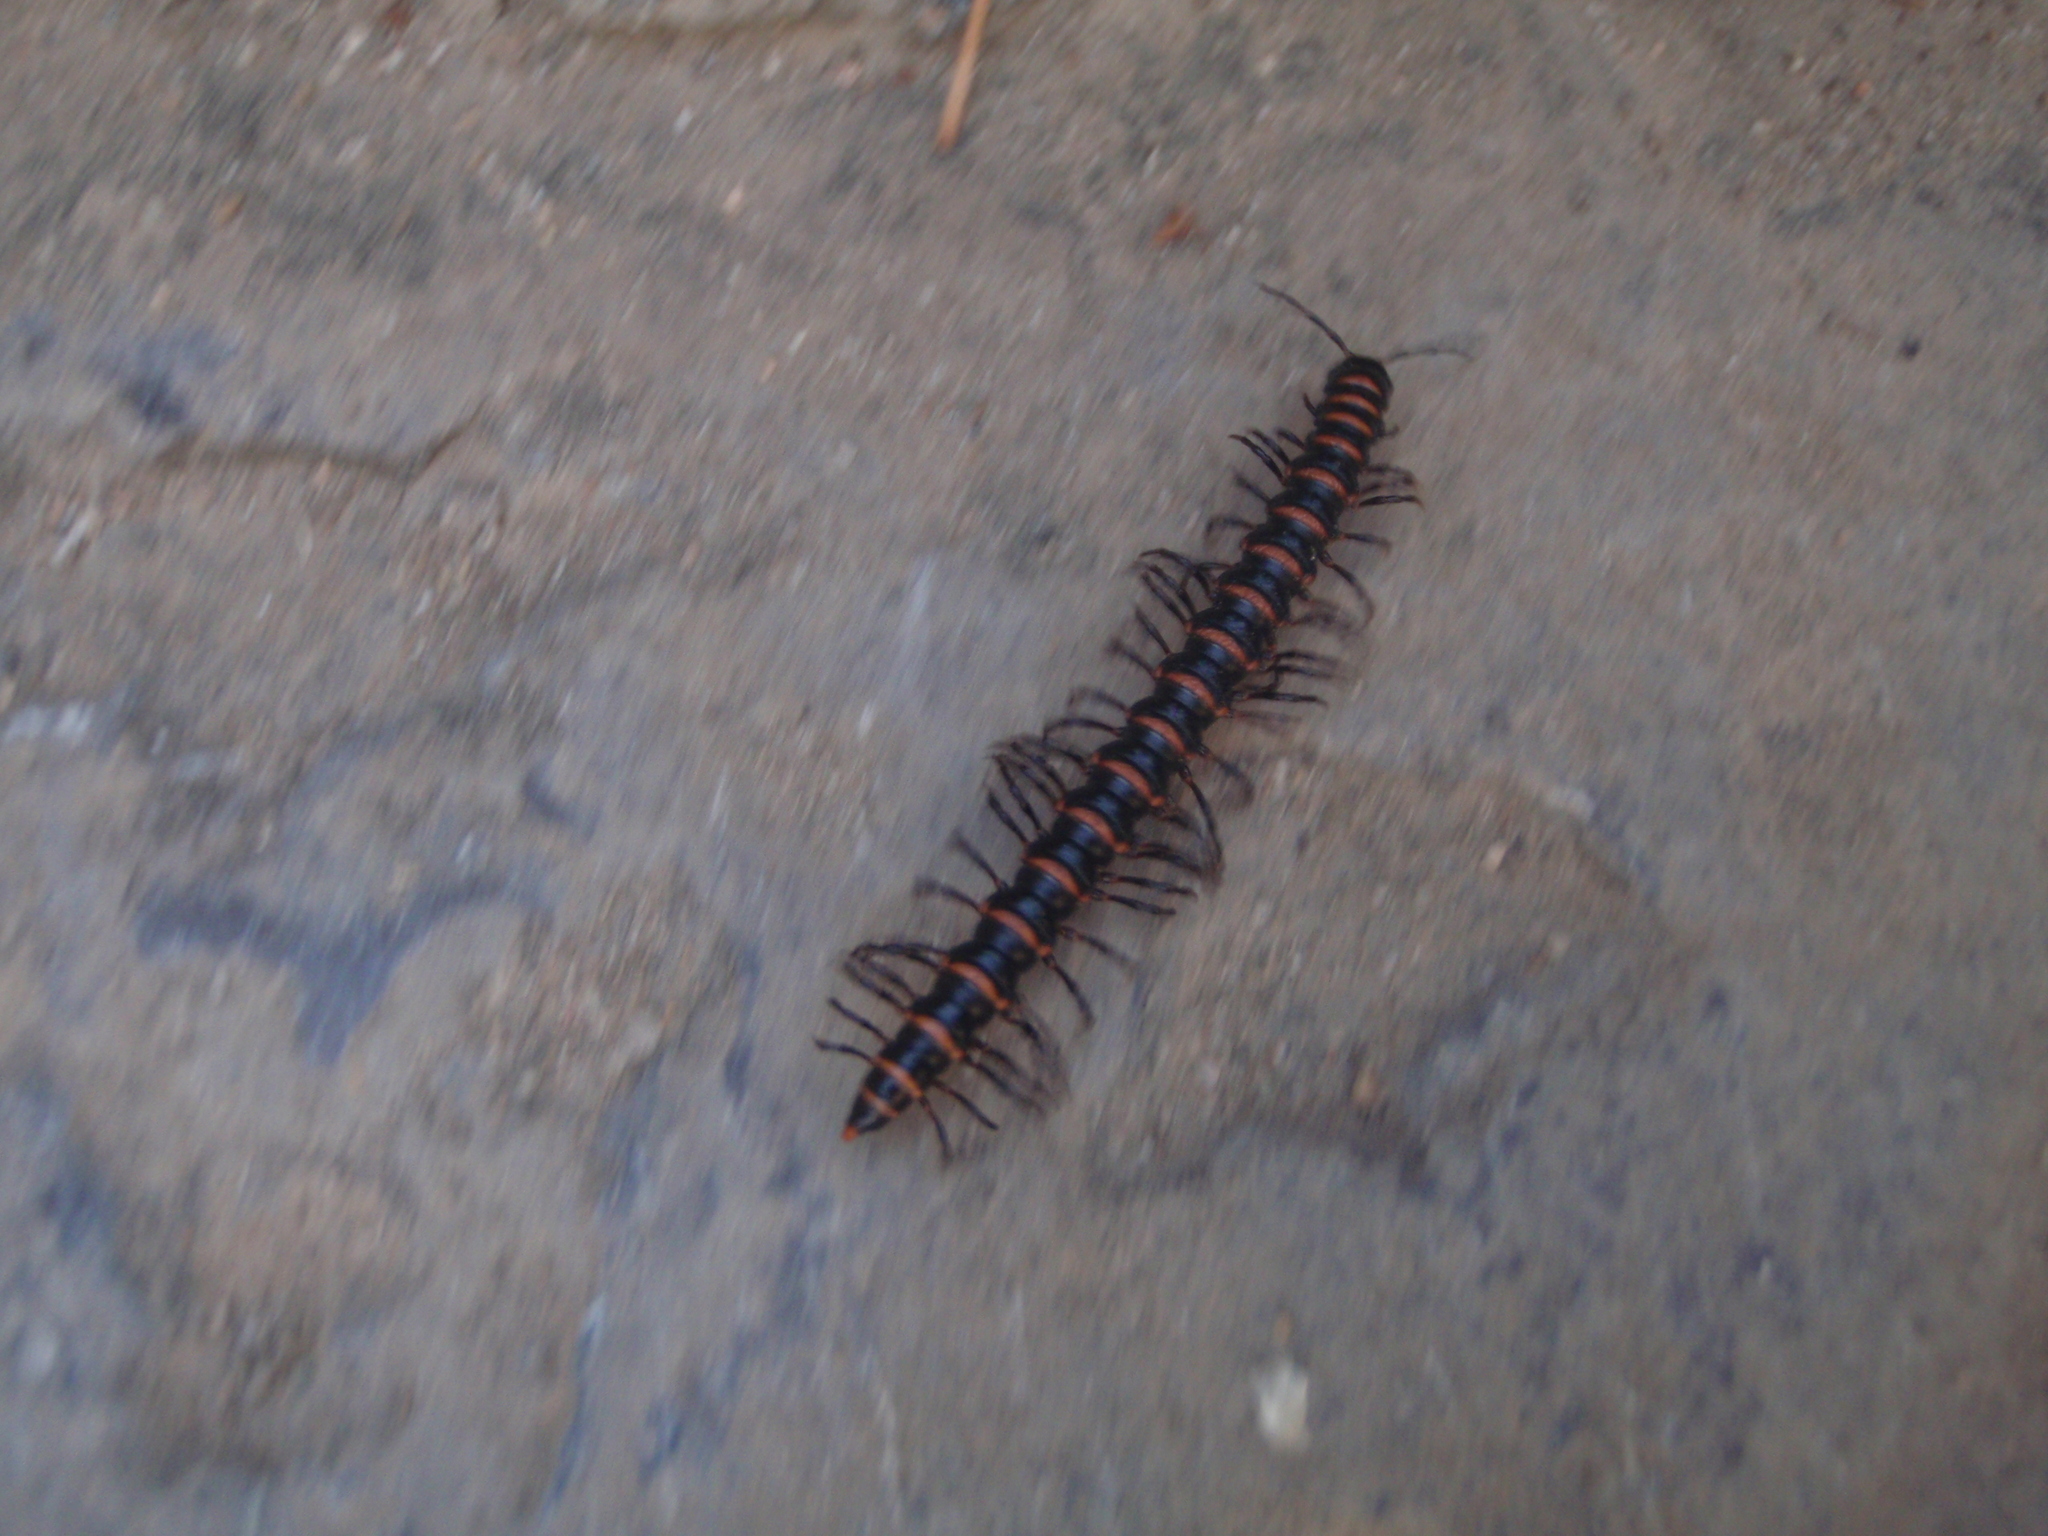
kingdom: Animalia
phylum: Arthropoda
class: Diplopoda
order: Polydesmida
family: Paradoxosomatidae
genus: Kronopolites
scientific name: Kronopolites swinhoei
